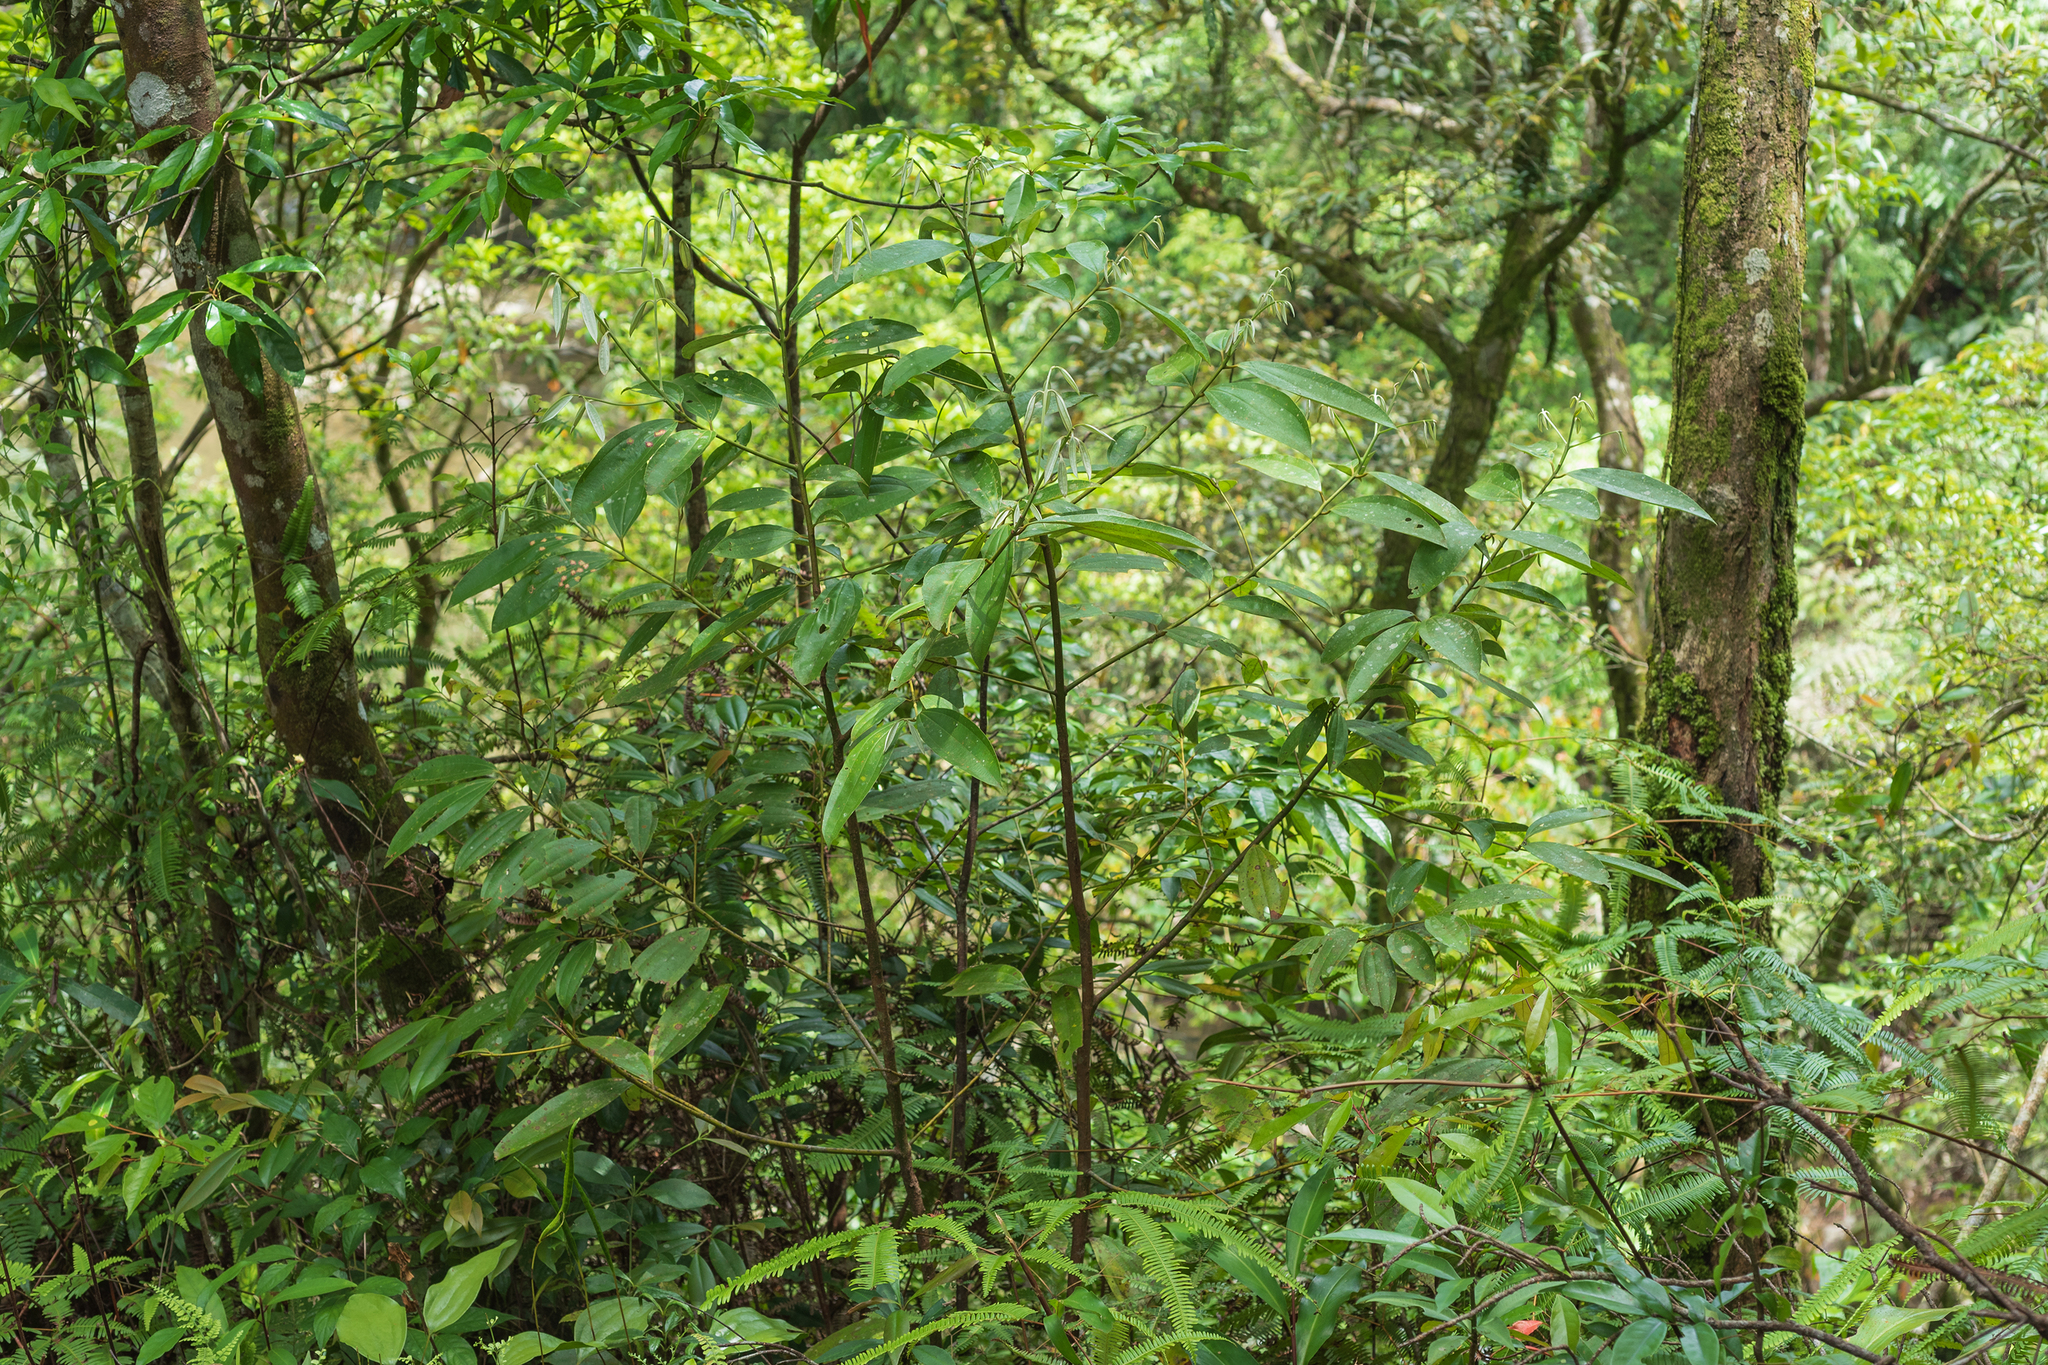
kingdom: Plantae
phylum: Tracheophyta
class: Magnoliopsida
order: Laurales
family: Lauraceae
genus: Cinnamomum
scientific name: Cinnamomum austrosinense
